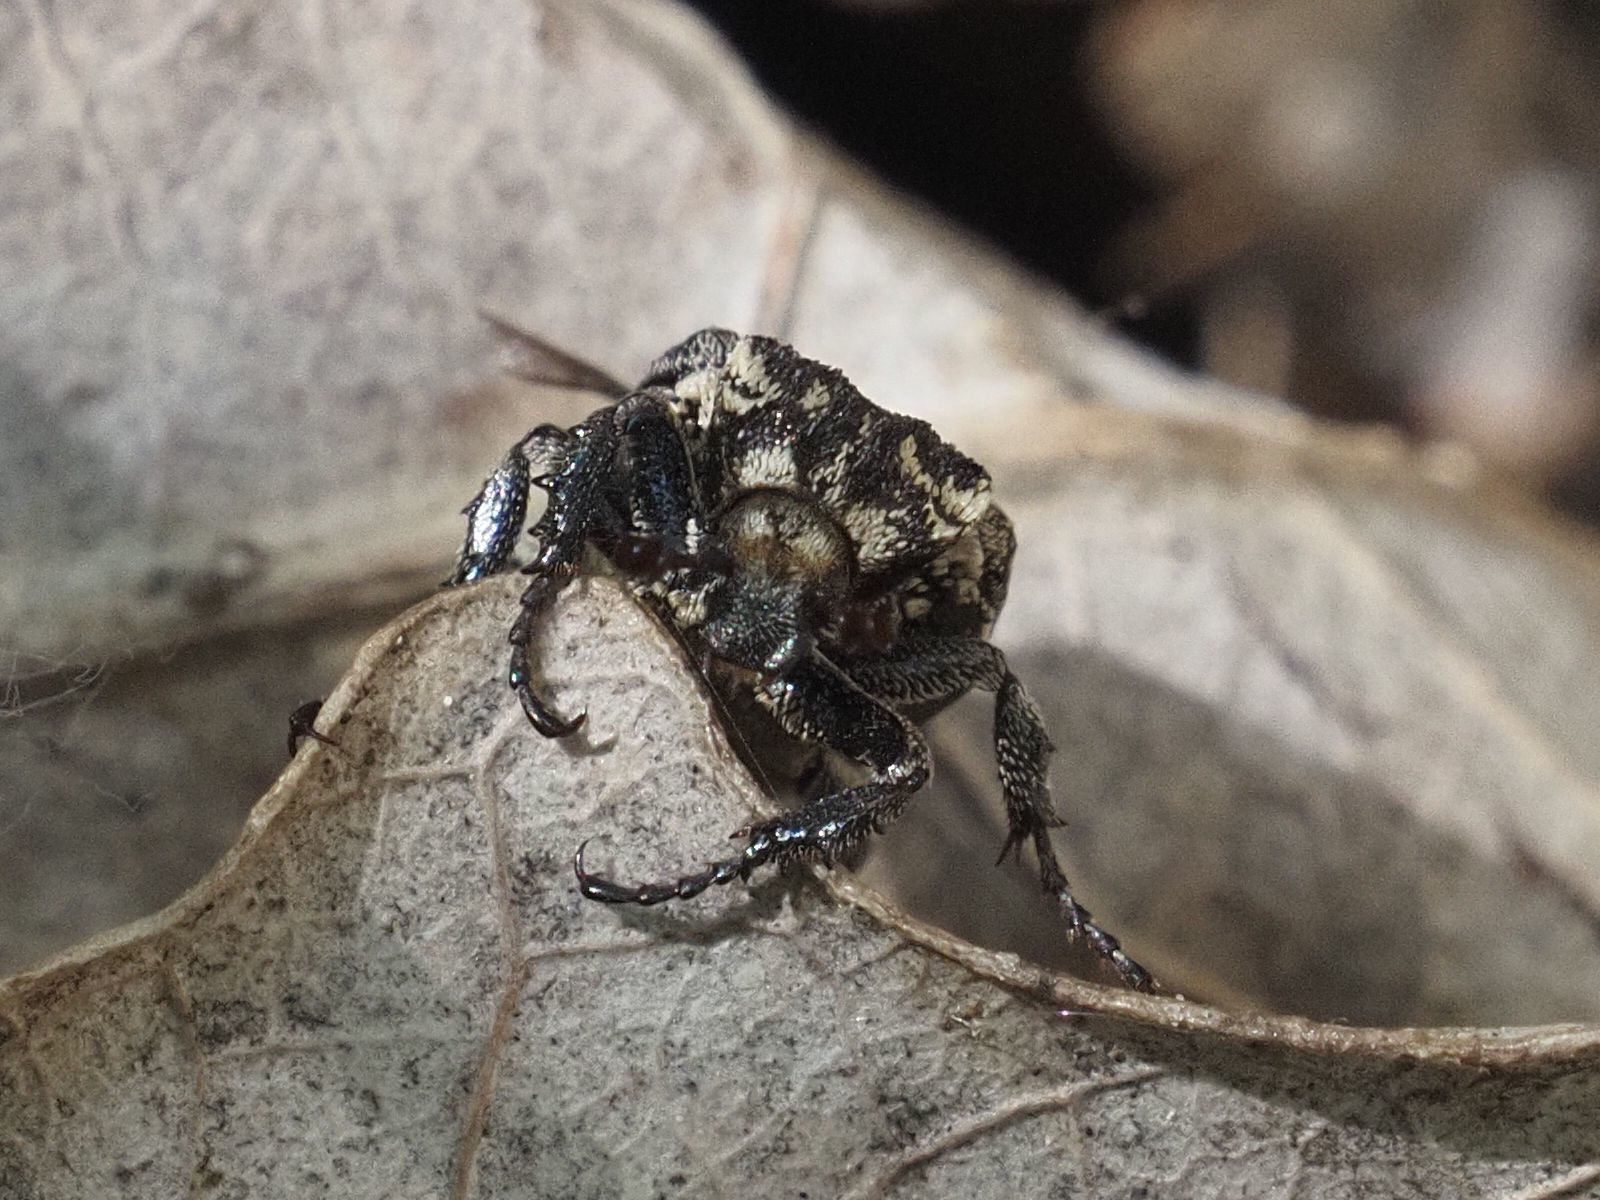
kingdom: Animalia
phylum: Arthropoda
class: Insecta
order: Coleoptera
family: Scarabaeidae
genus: Valgus
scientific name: Valgus hemipterus
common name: Bug flower chafer
